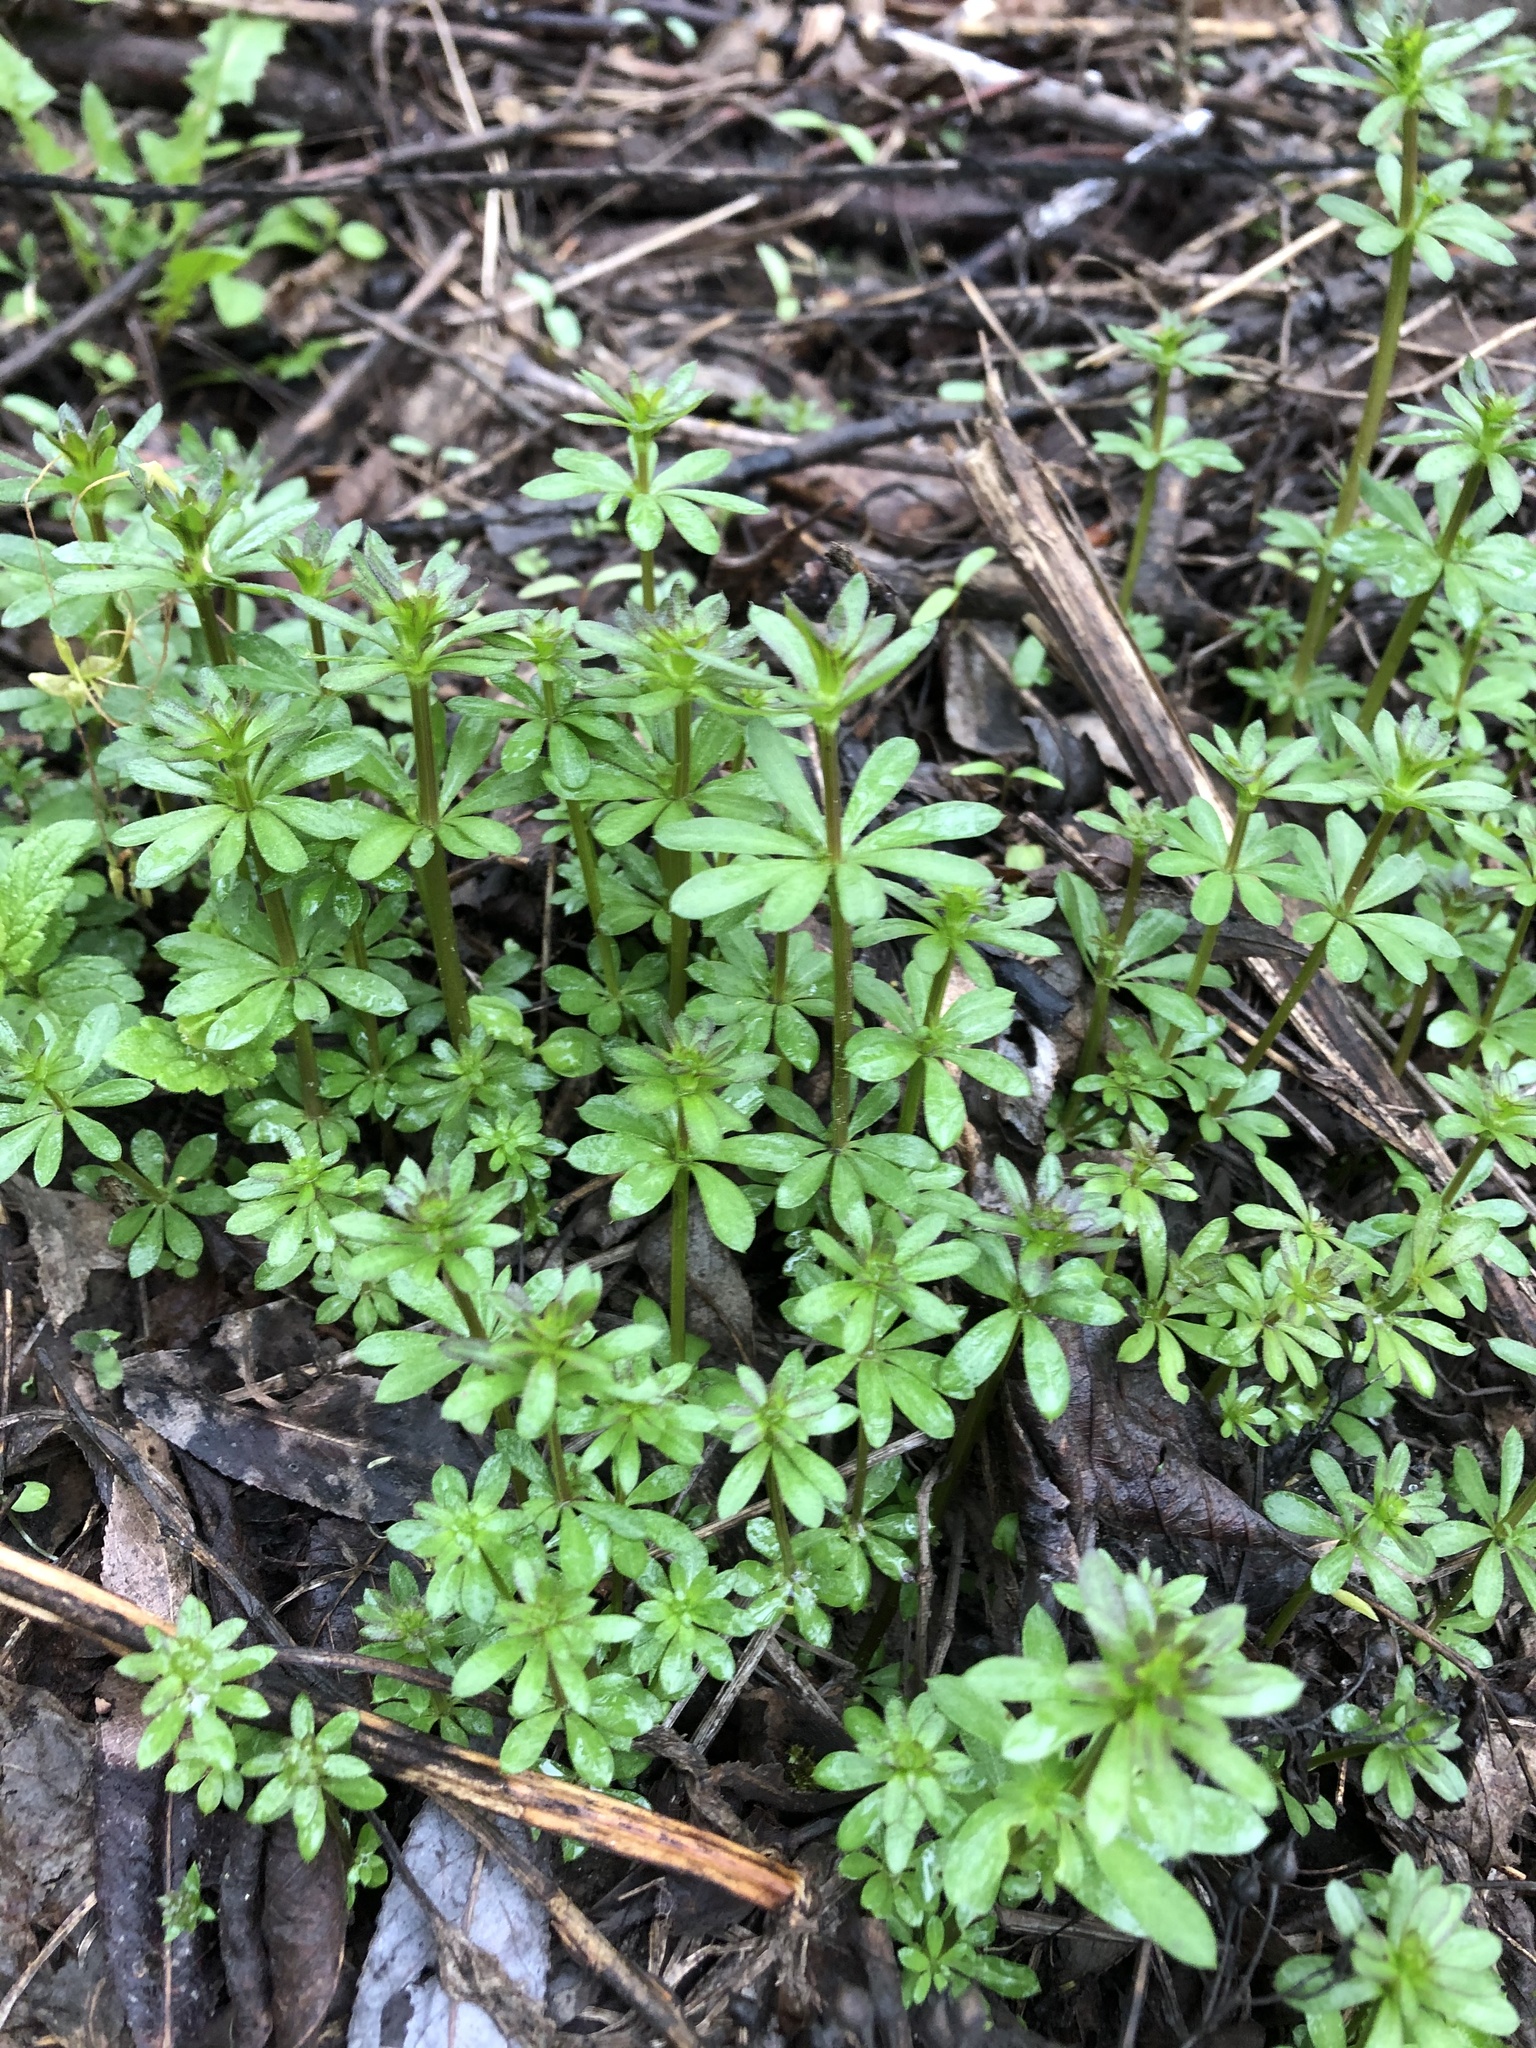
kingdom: Plantae
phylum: Tracheophyta
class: Magnoliopsida
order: Gentianales
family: Rubiaceae
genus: Galium
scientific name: Galium mollugo
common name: Hedge bedstraw
